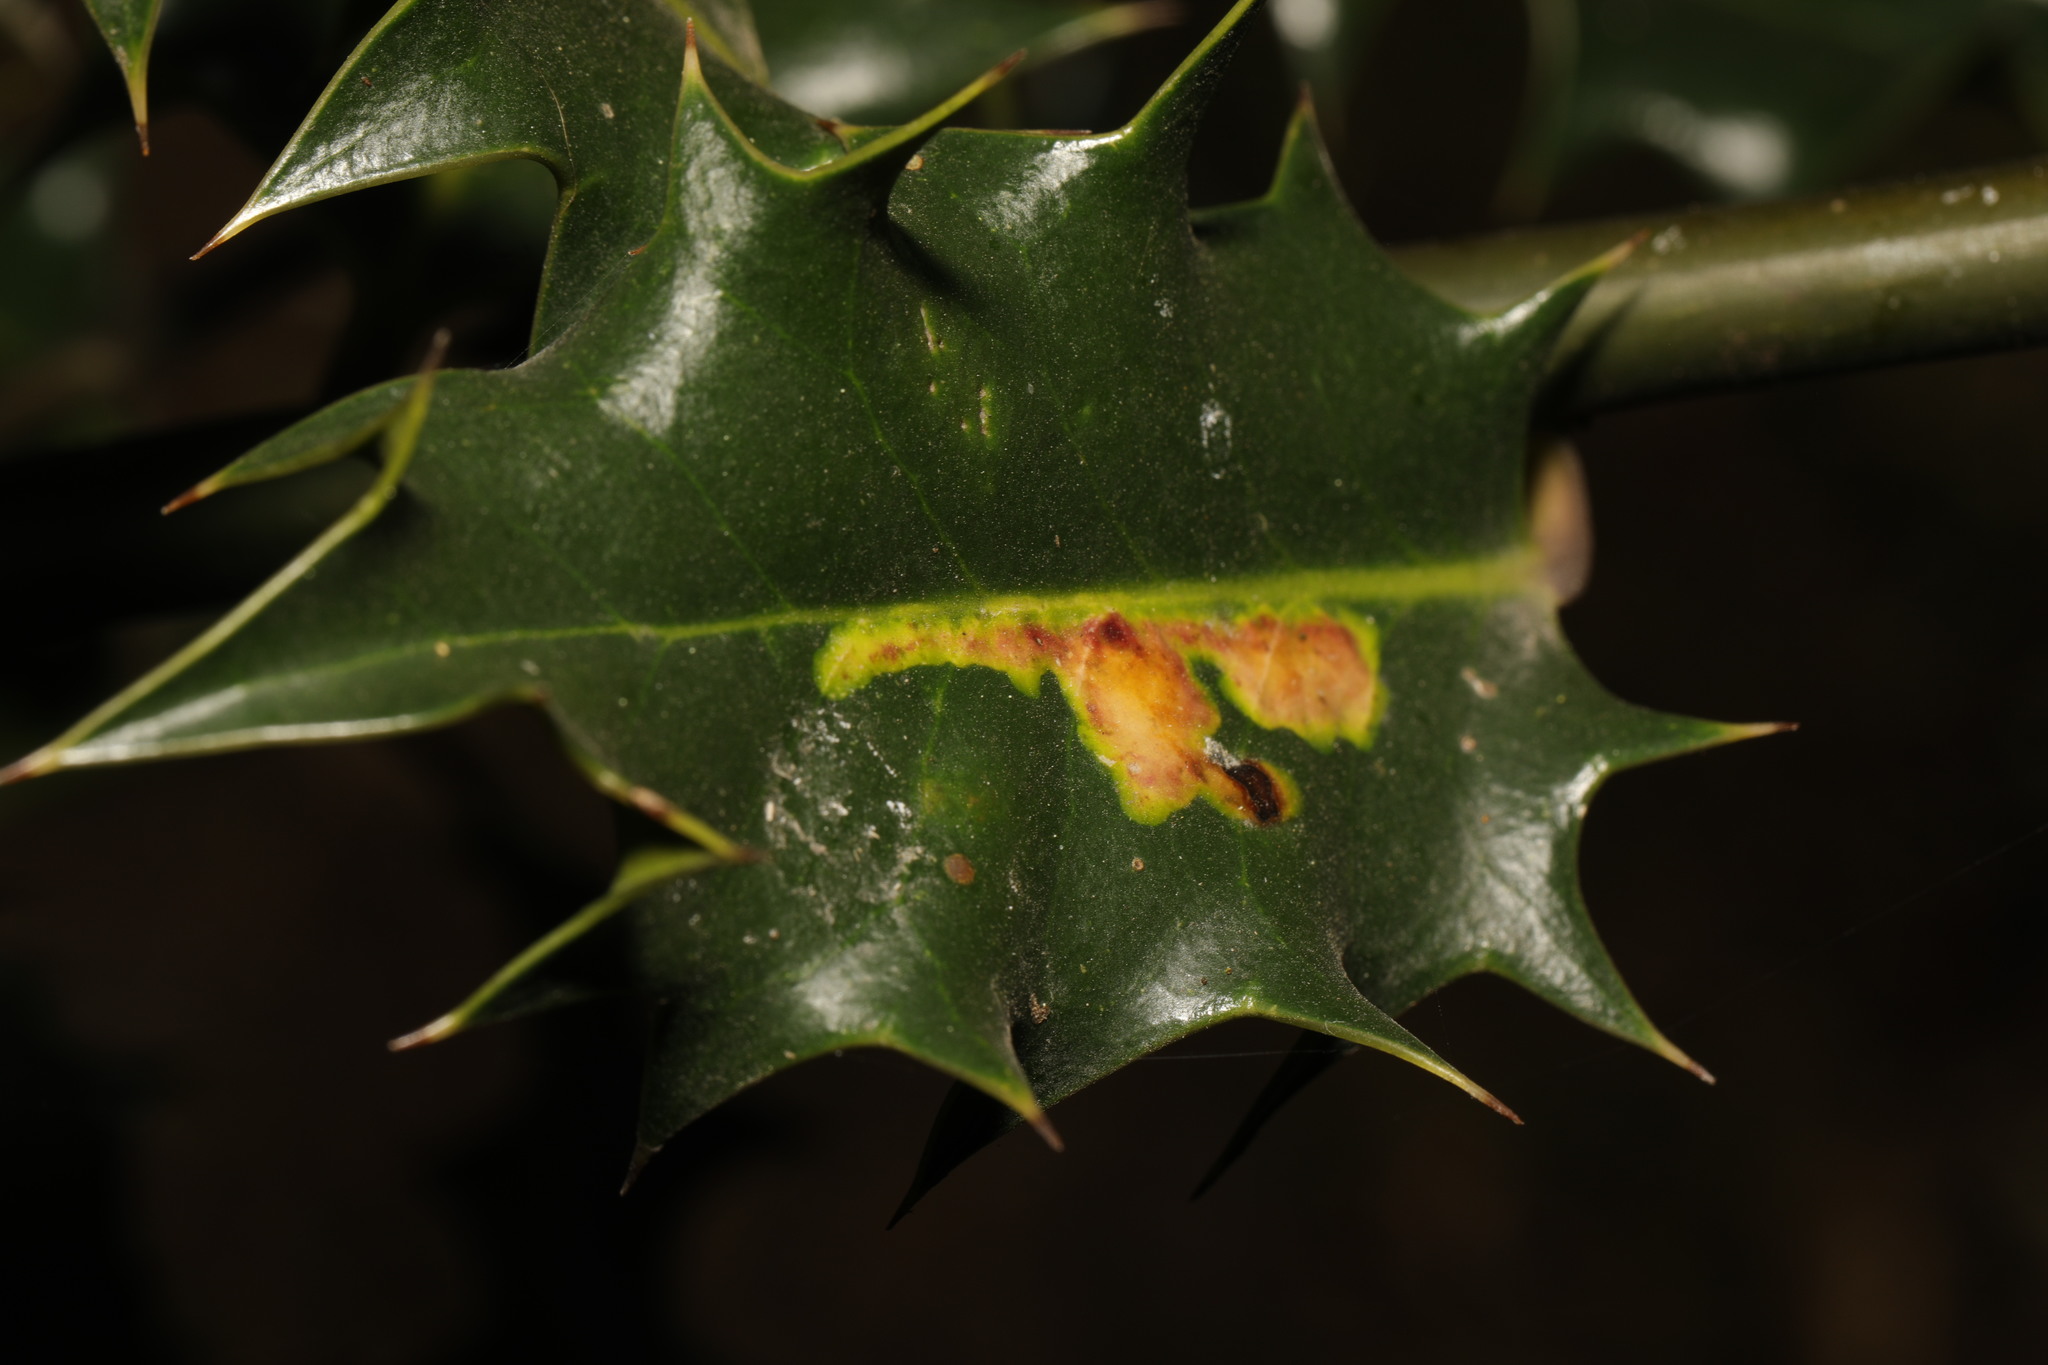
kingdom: Animalia
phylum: Arthropoda
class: Insecta
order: Diptera
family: Agromyzidae
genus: Phytomyza
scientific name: Phytomyza ilicis
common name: Holly leafminer
